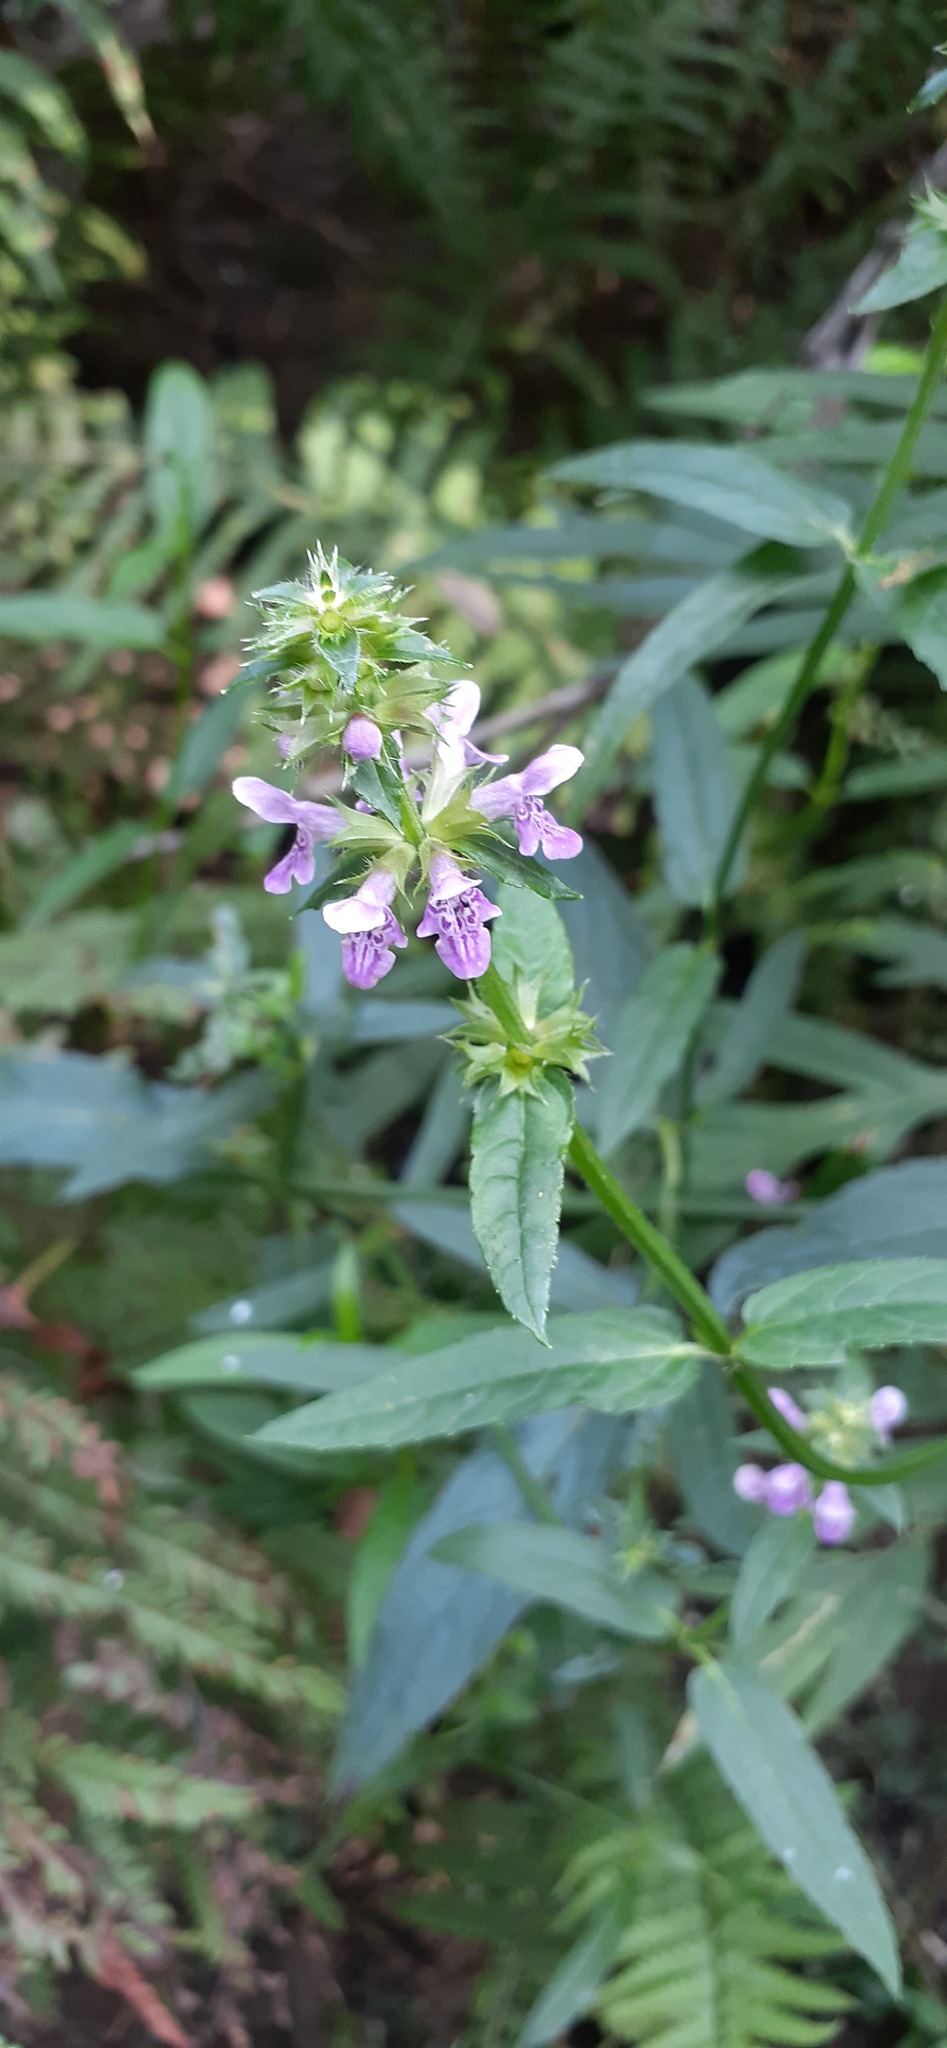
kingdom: Plantae
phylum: Tracheophyta
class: Magnoliopsida
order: Lamiales
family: Lamiaceae
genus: Stachys
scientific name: Stachys aspera
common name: Hyssopleaf hedgenettle
